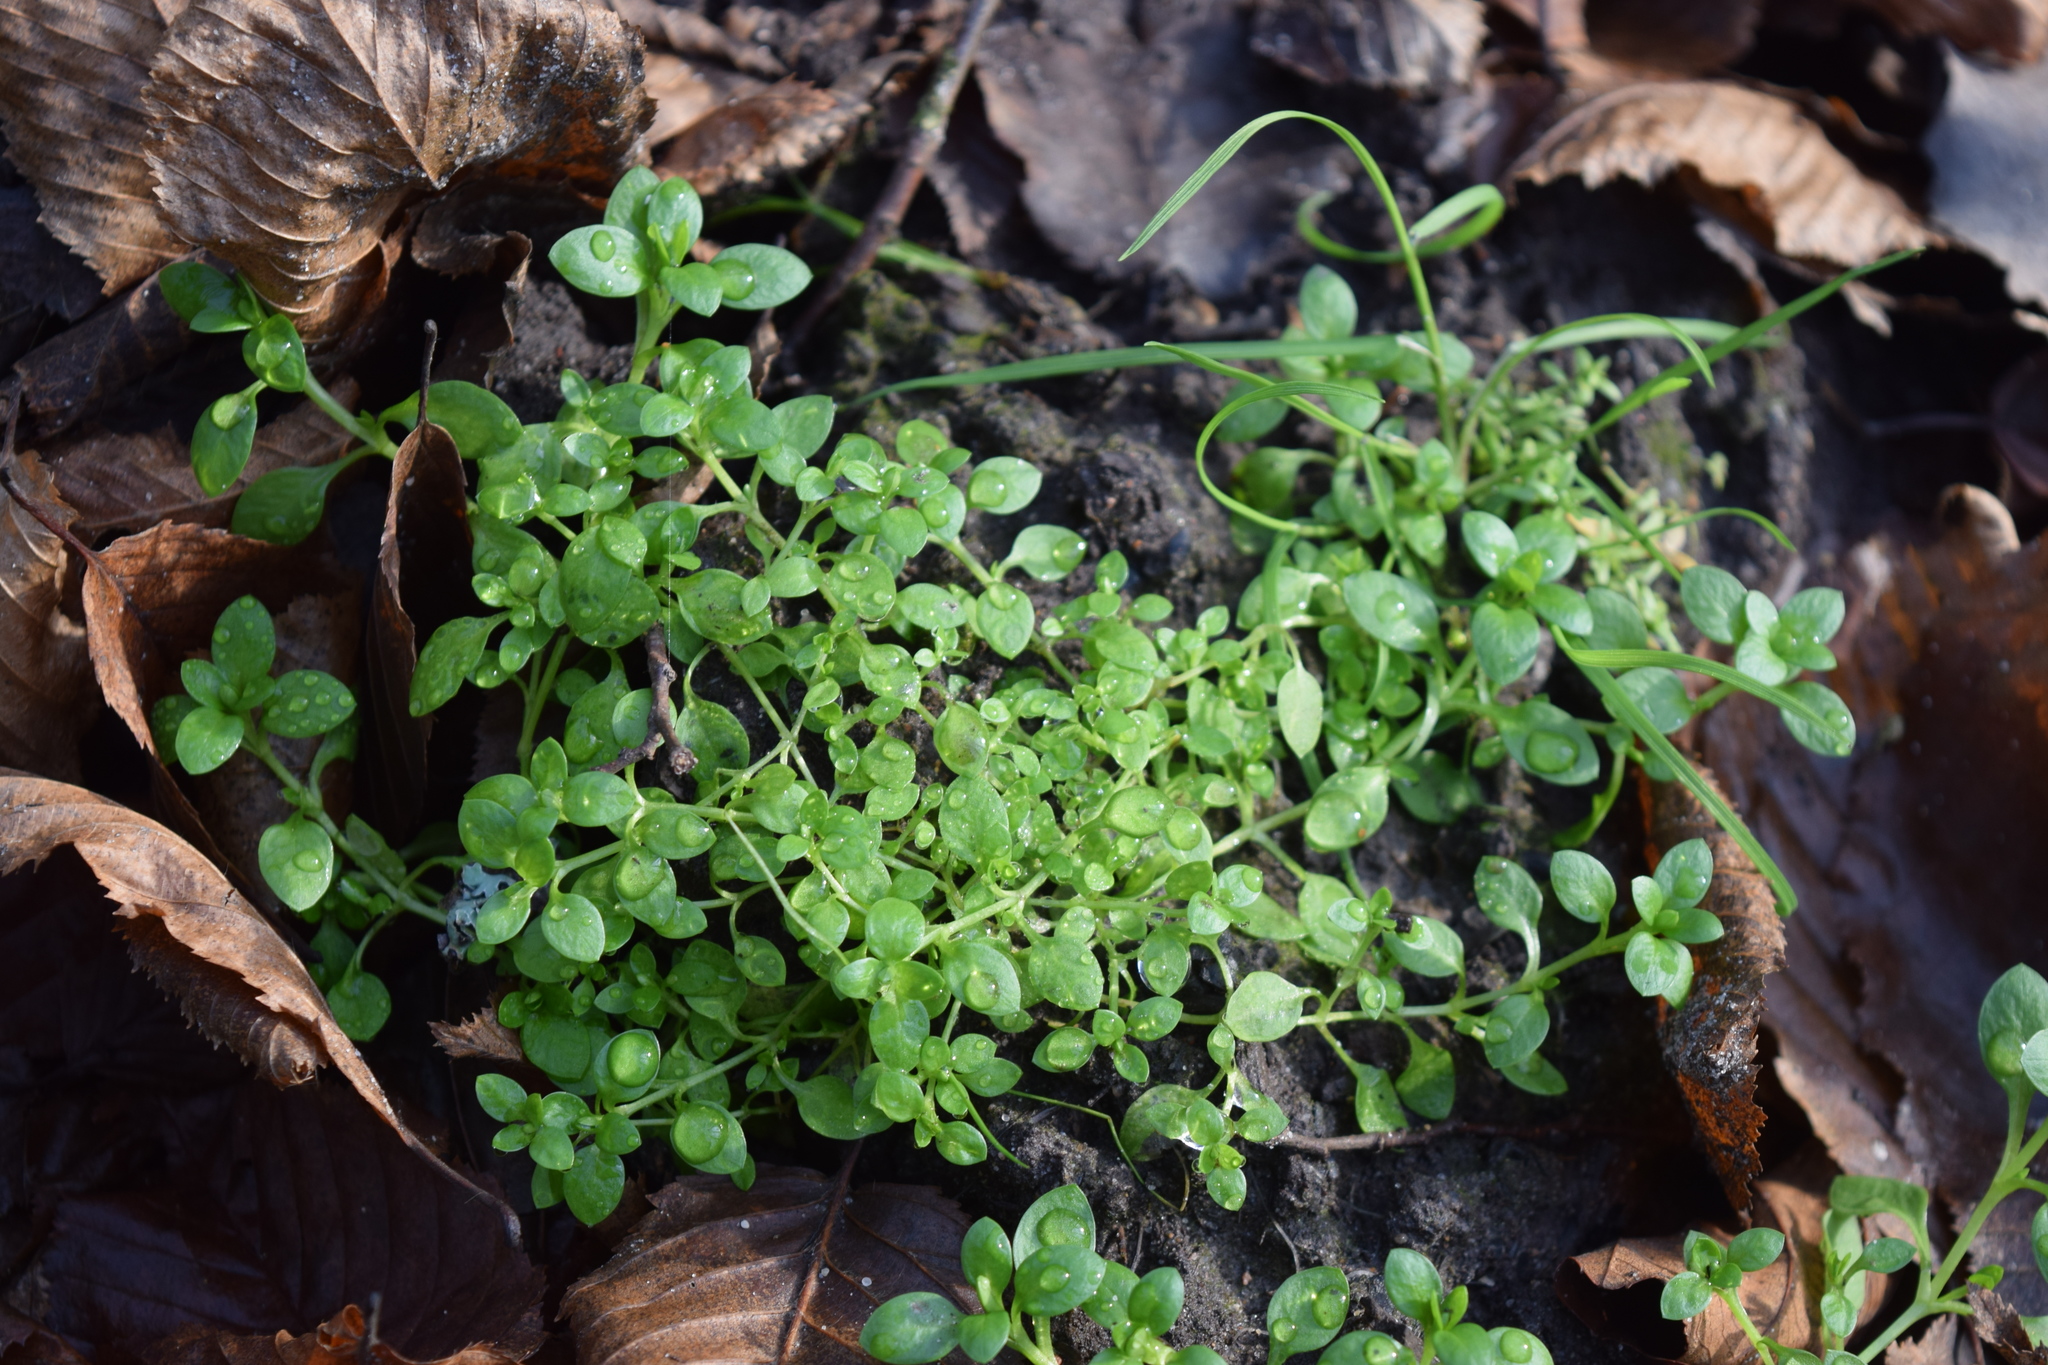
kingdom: Plantae
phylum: Tracheophyta
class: Magnoliopsida
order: Caryophyllales
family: Caryophyllaceae
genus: Stellaria
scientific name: Stellaria media
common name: Common chickweed
